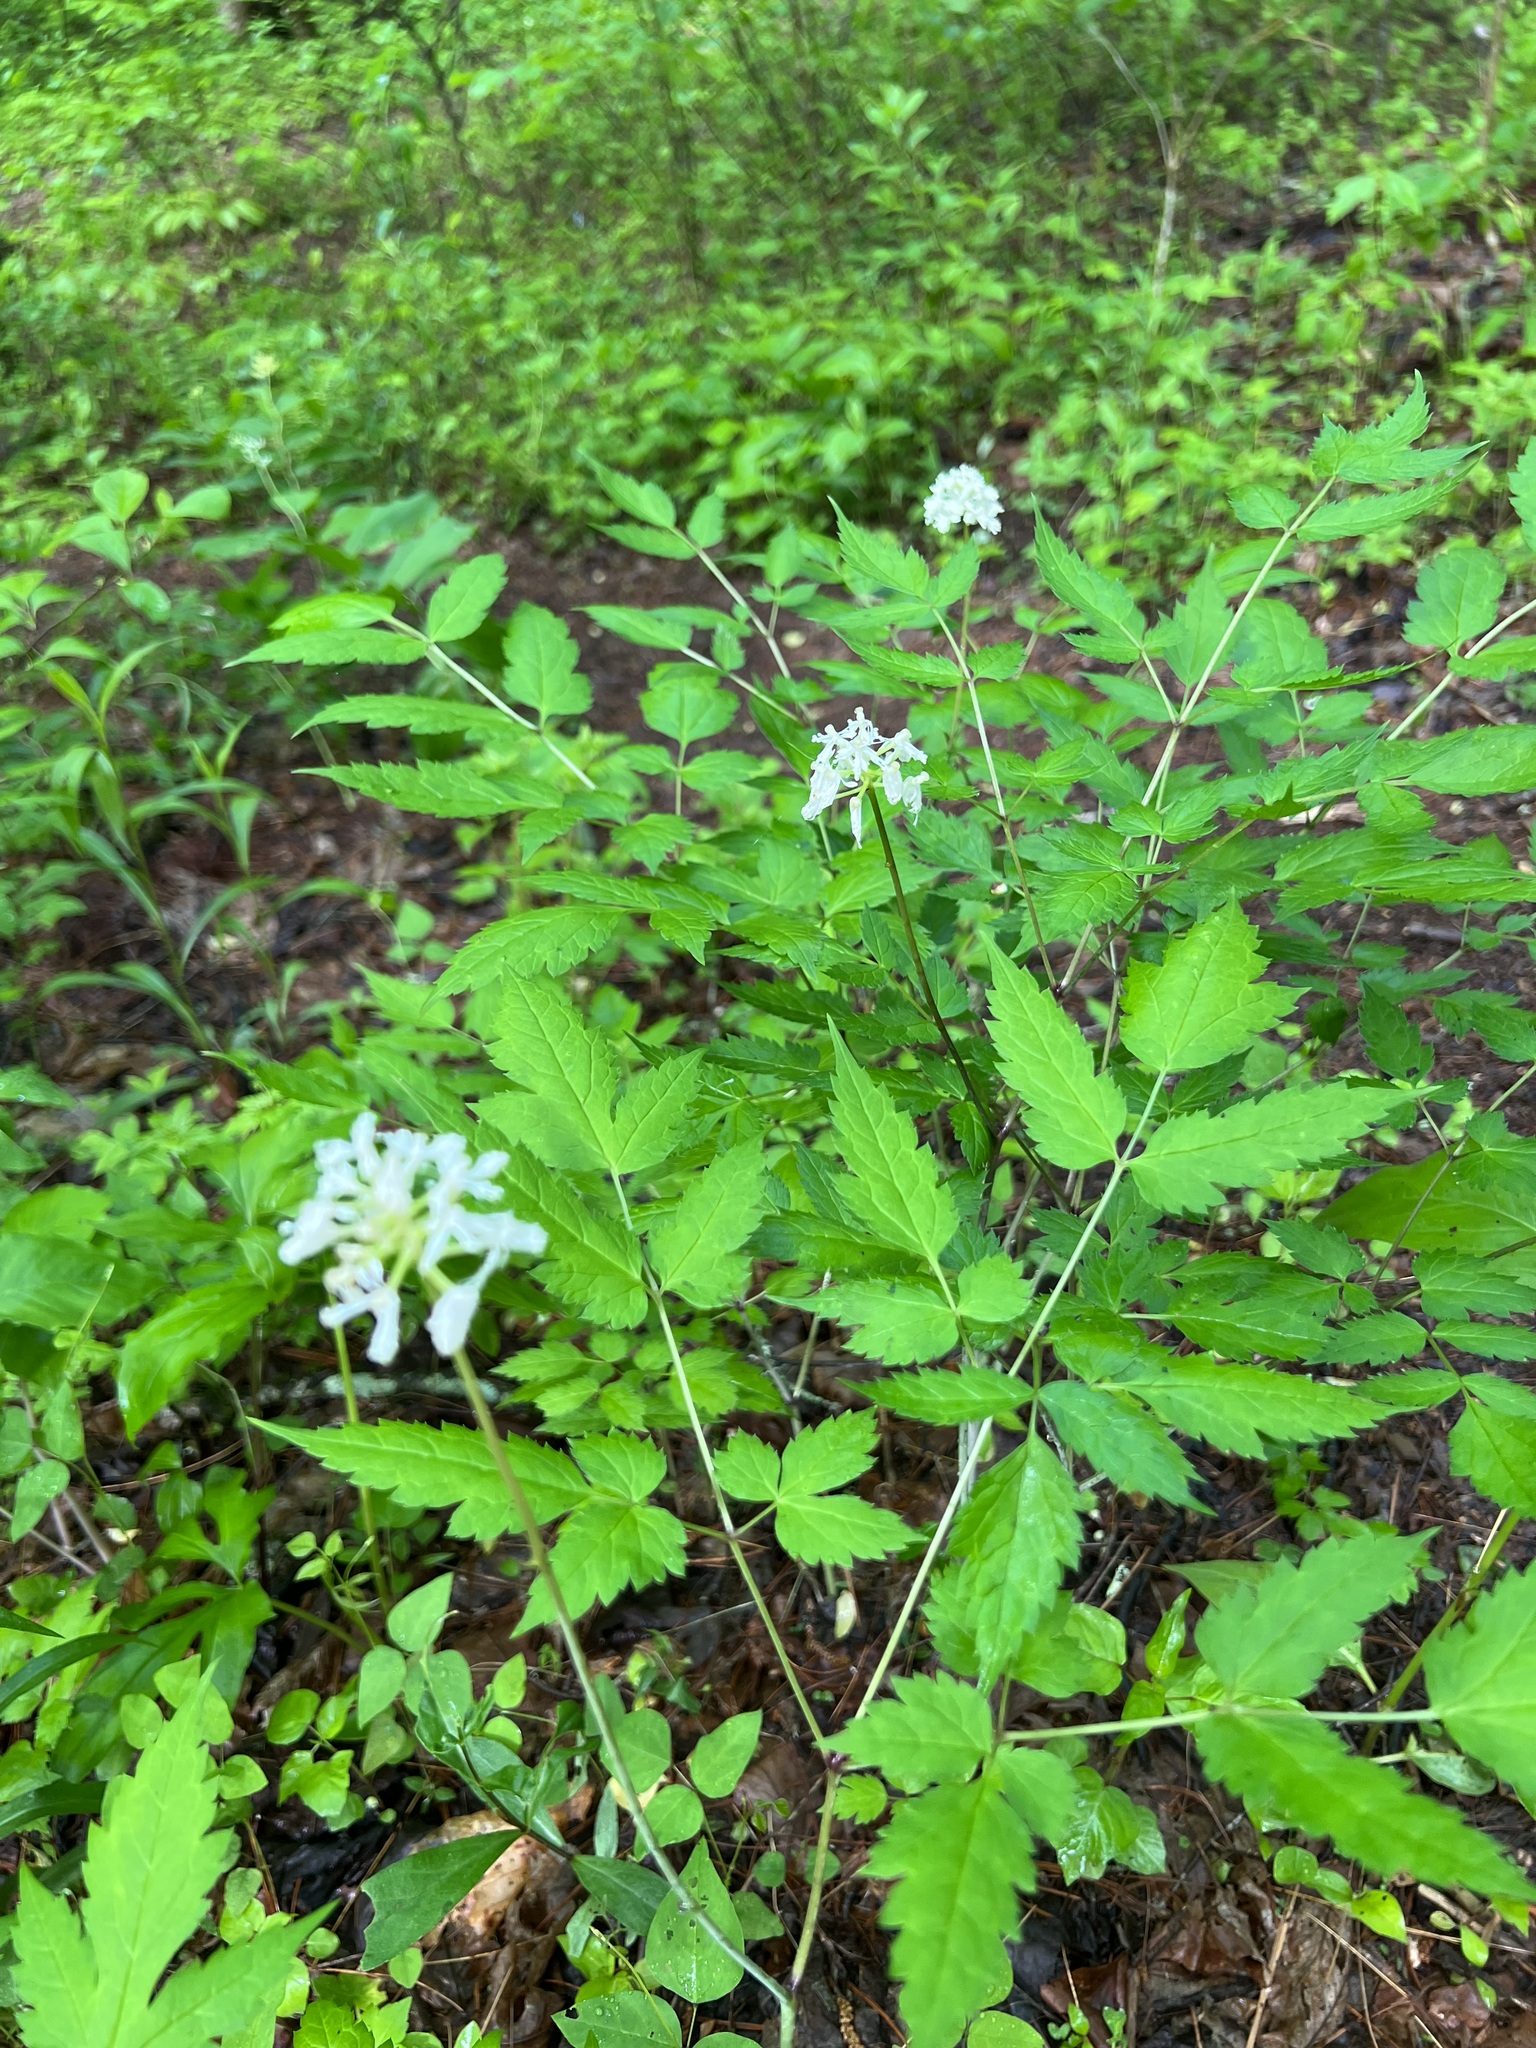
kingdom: Plantae
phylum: Tracheophyta
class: Magnoliopsida
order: Ranunculales
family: Ranunculaceae
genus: Actaea
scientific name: Actaea pachypoda
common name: Doll's-eyes
